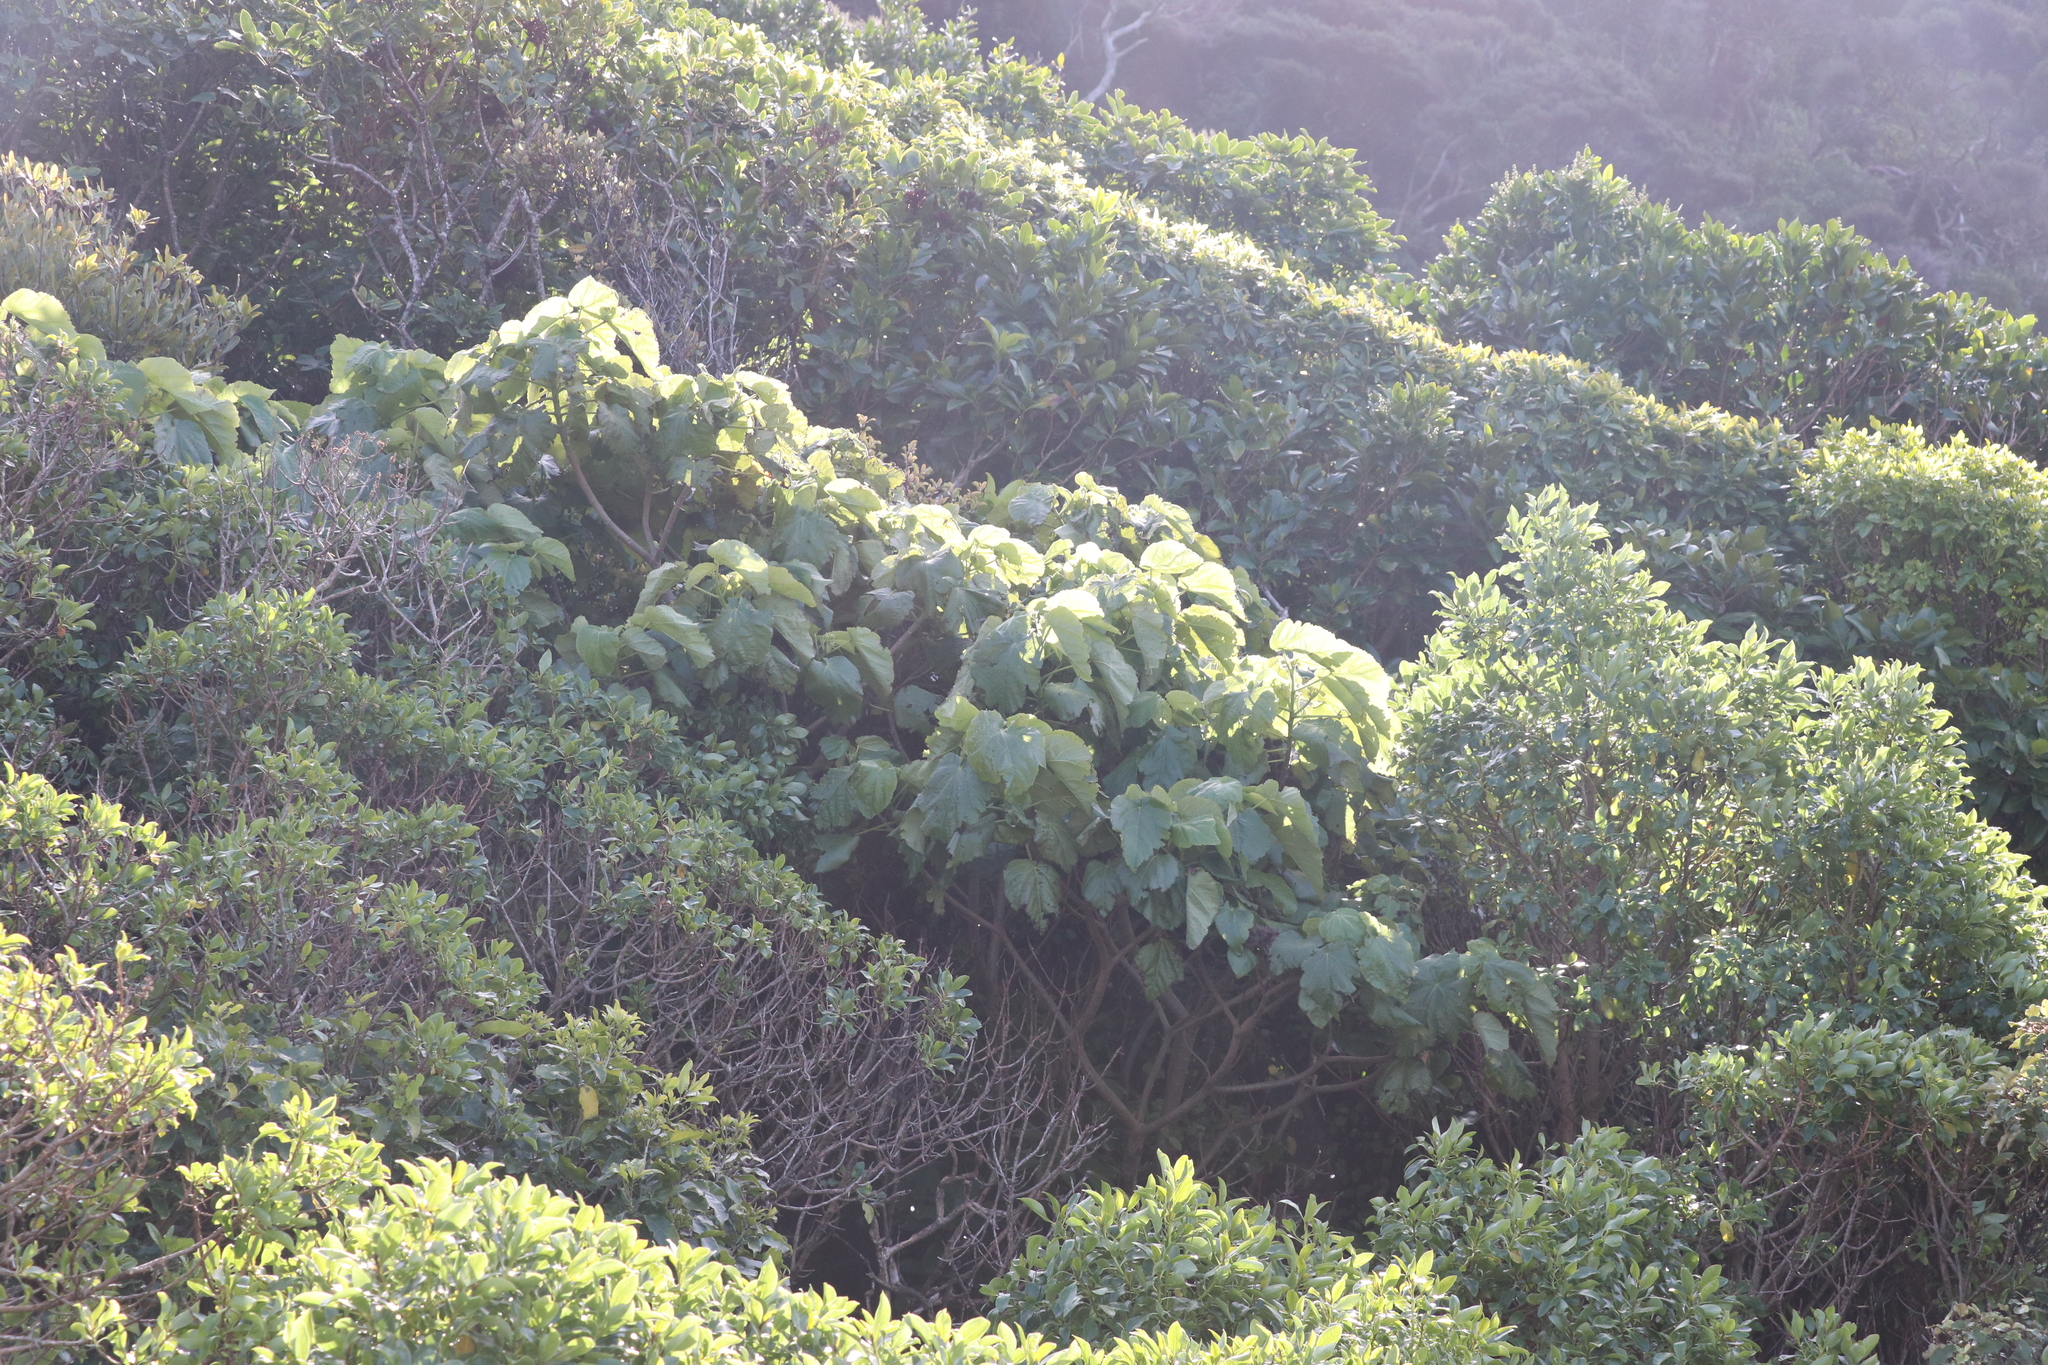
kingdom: Plantae
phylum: Tracheophyta
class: Magnoliopsida
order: Malvales
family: Malvaceae
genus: Entelea
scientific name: Entelea arborescens
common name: New zealand-mulberry
